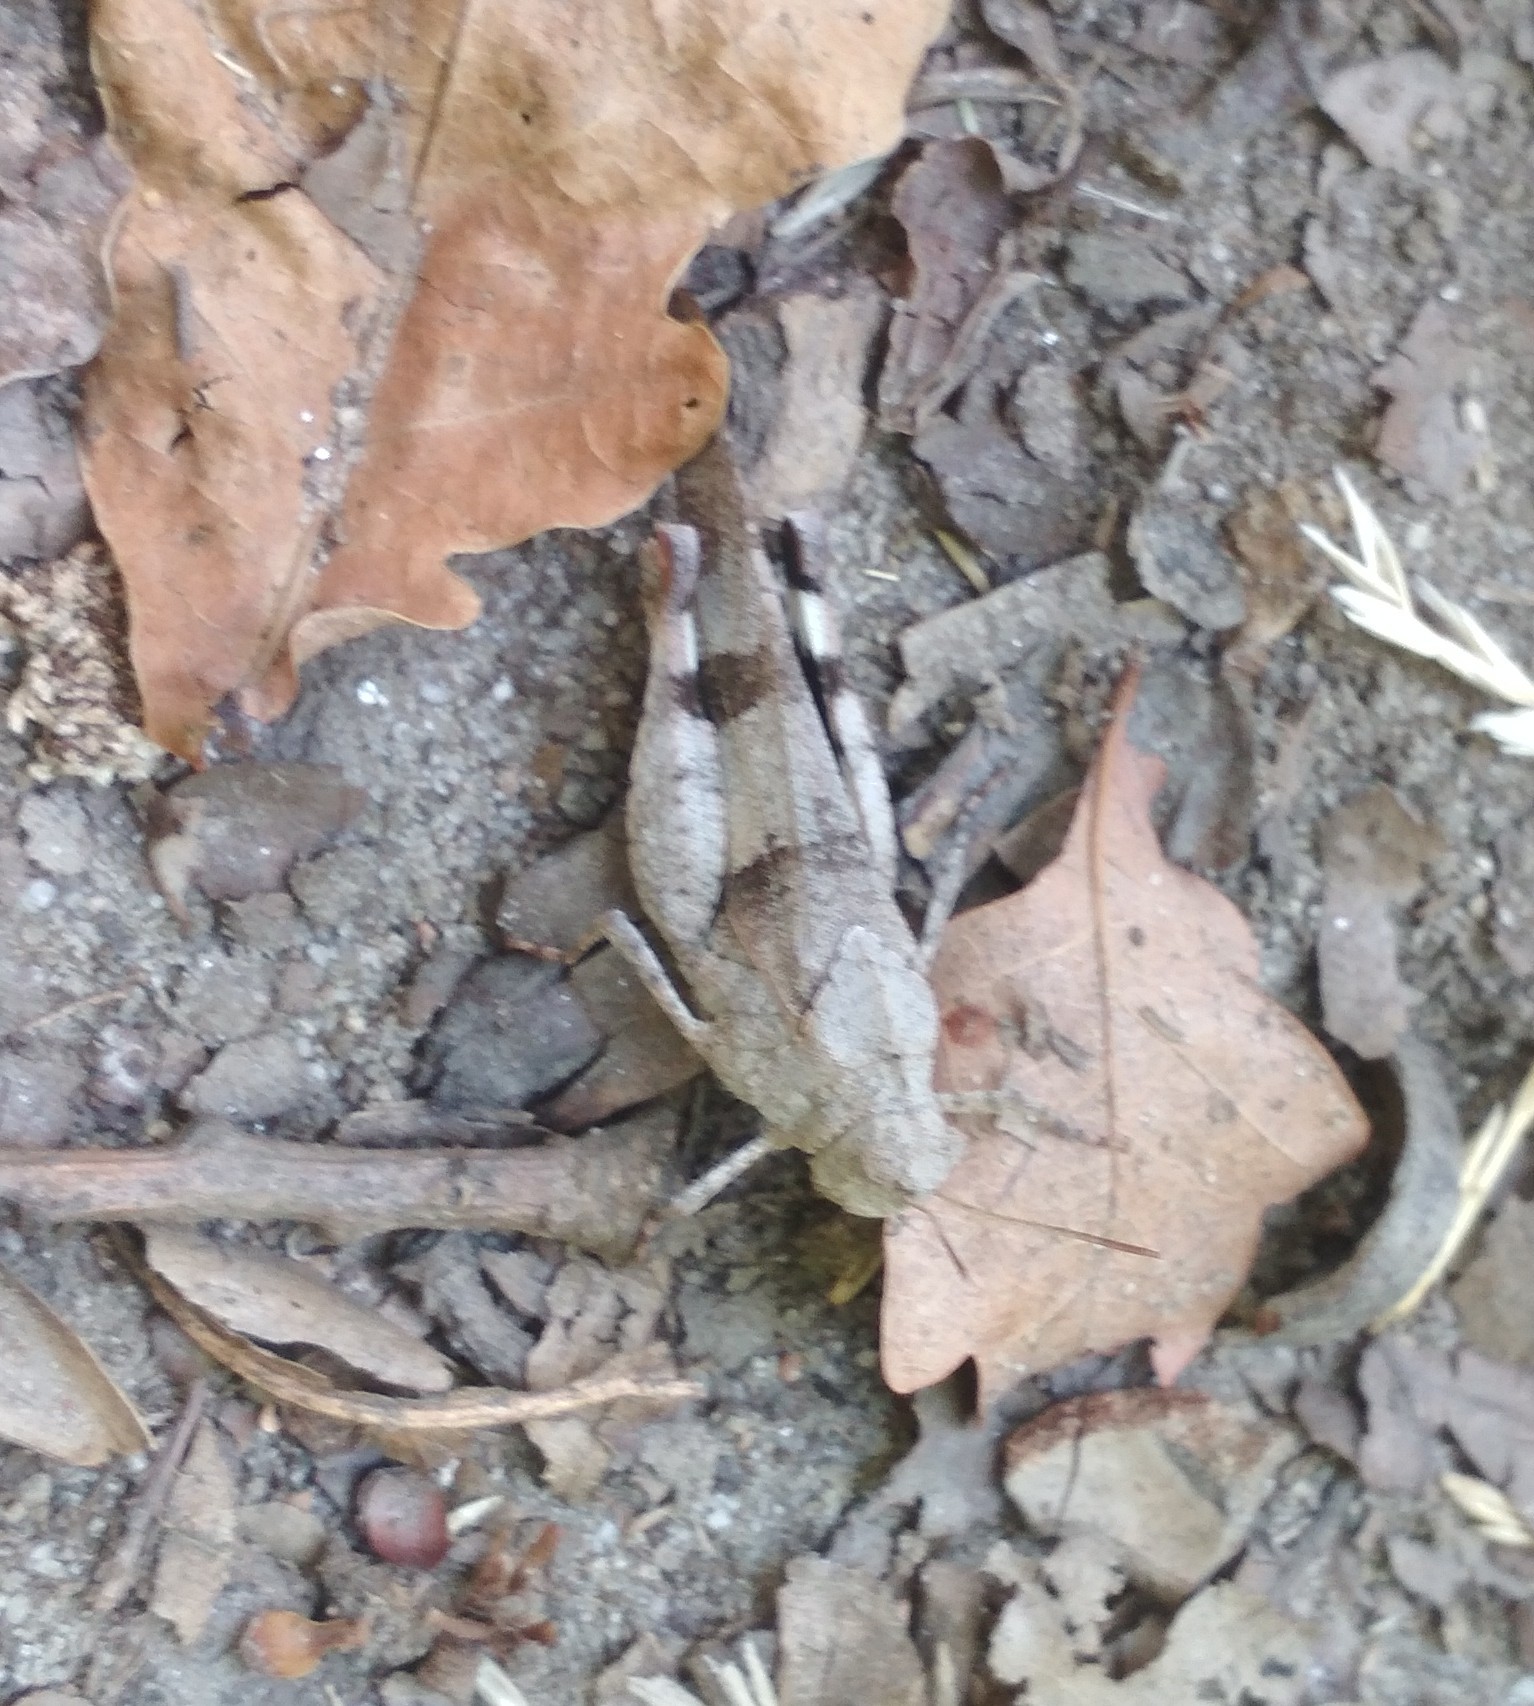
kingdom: Animalia
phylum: Arthropoda
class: Insecta
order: Orthoptera
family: Acrididae
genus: Oedipoda
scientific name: Oedipoda caerulescens
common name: Blue-winged grasshopper
